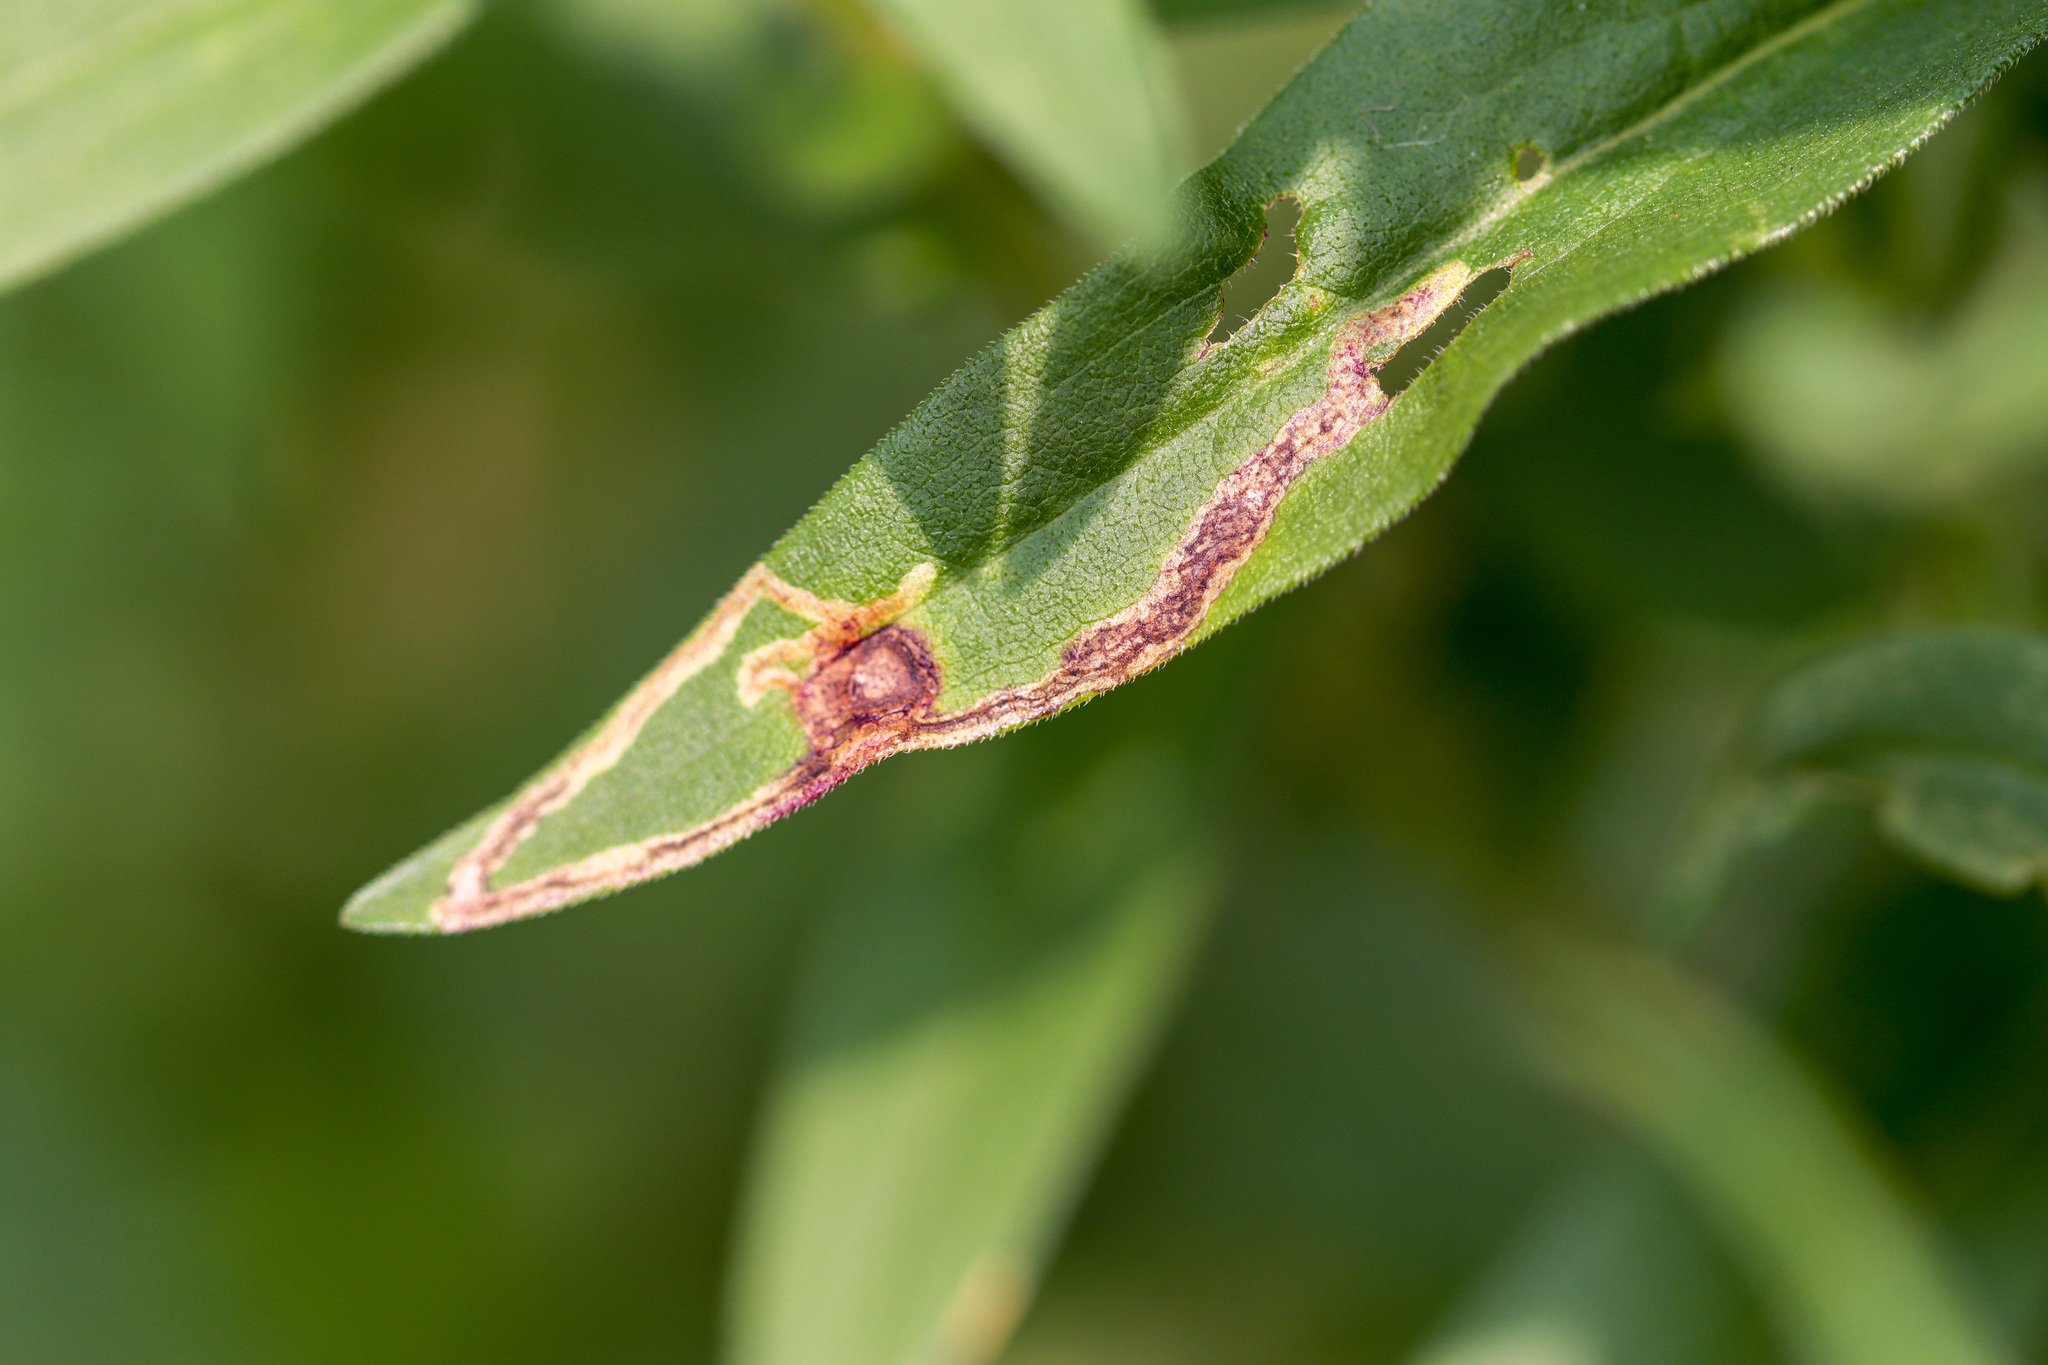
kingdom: Animalia
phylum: Arthropoda
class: Insecta
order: Diptera
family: Agromyzidae
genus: Liriomyza
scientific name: Liriomyza eupatorii
